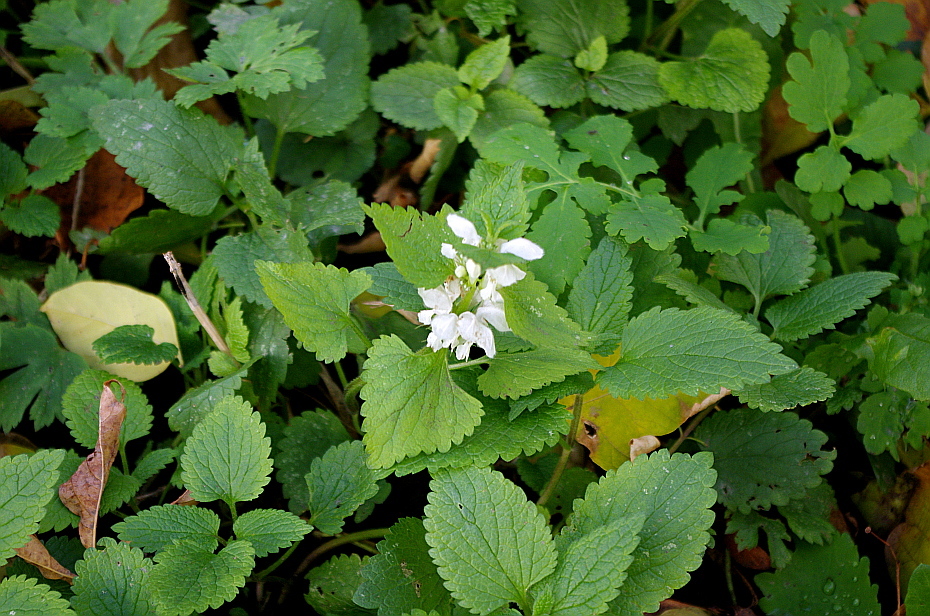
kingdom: Plantae
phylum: Tracheophyta
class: Magnoliopsida
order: Lamiales
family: Lamiaceae
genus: Lamium
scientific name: Lamium album
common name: White dead-nettle
